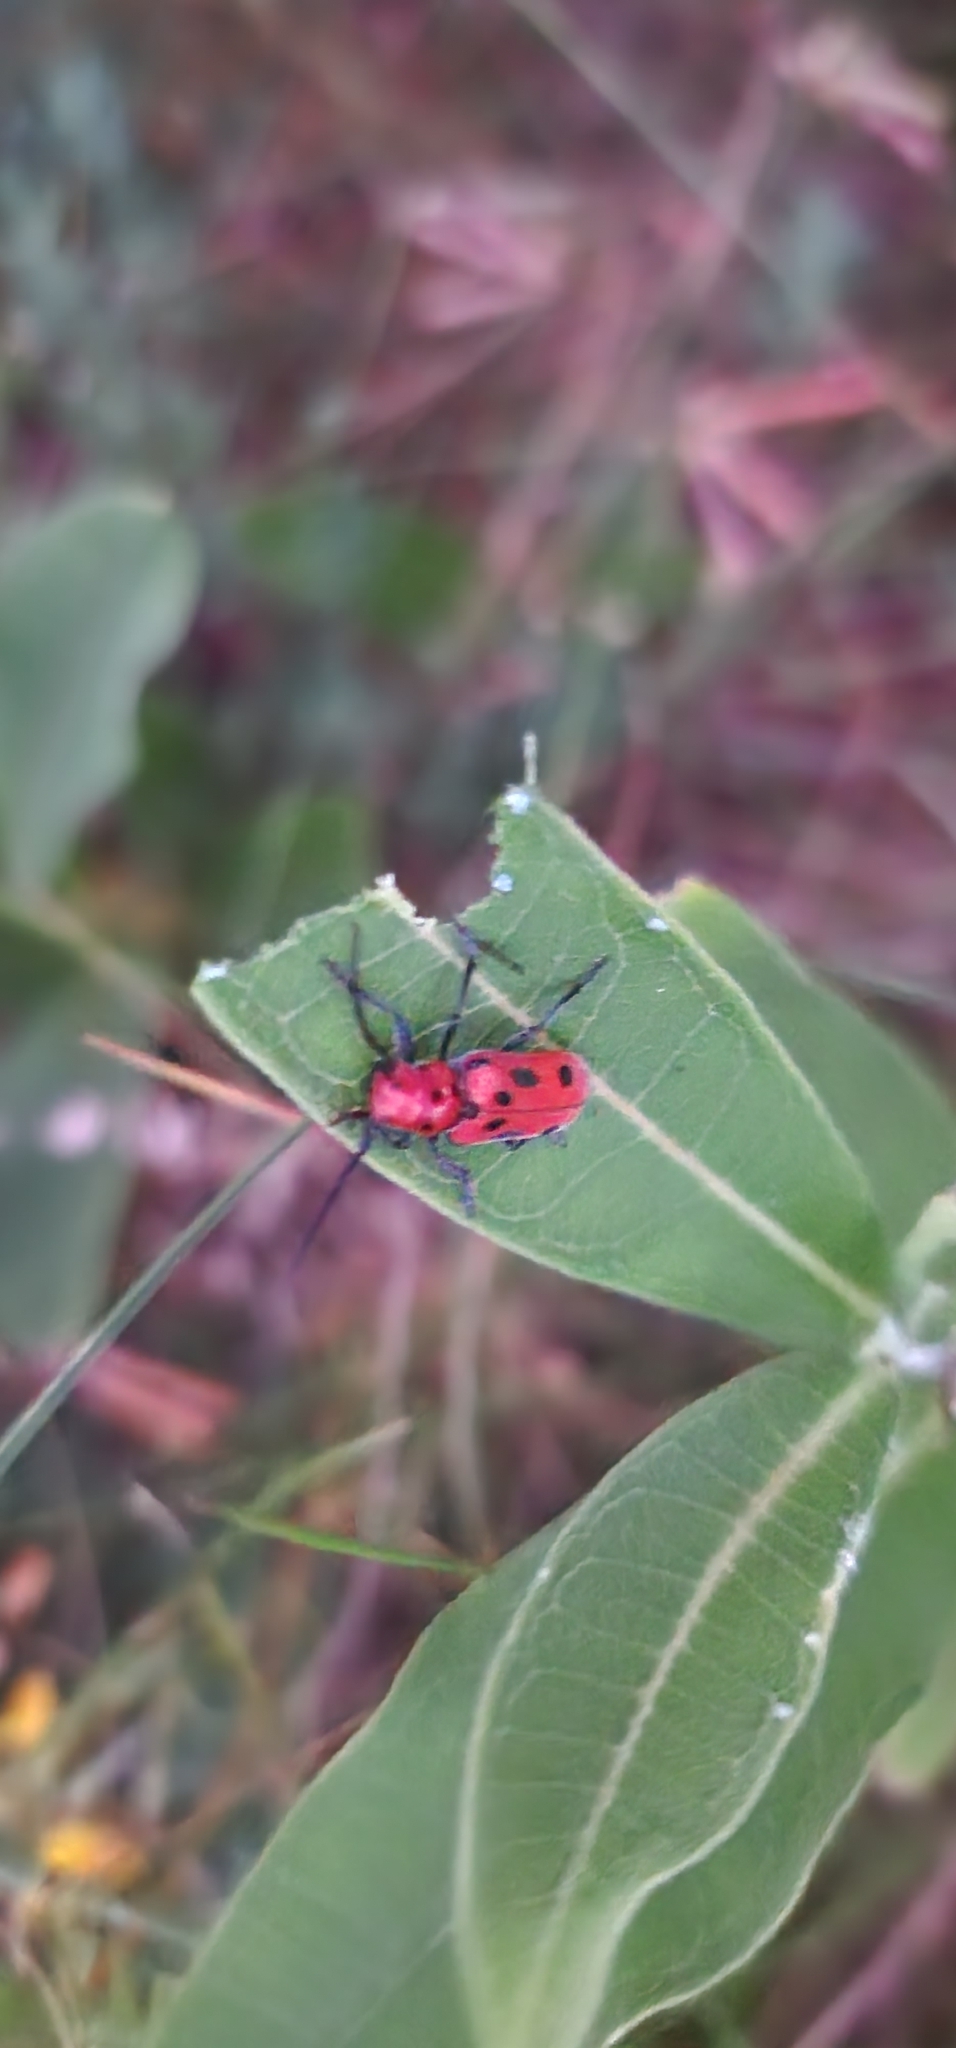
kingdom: Animalia
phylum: Arthropoda
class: Insecta
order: Coleoptera
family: Cerambycidae
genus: Tetraopes
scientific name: Tetraopes tetrophthalmus
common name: Red milkweed beetle
